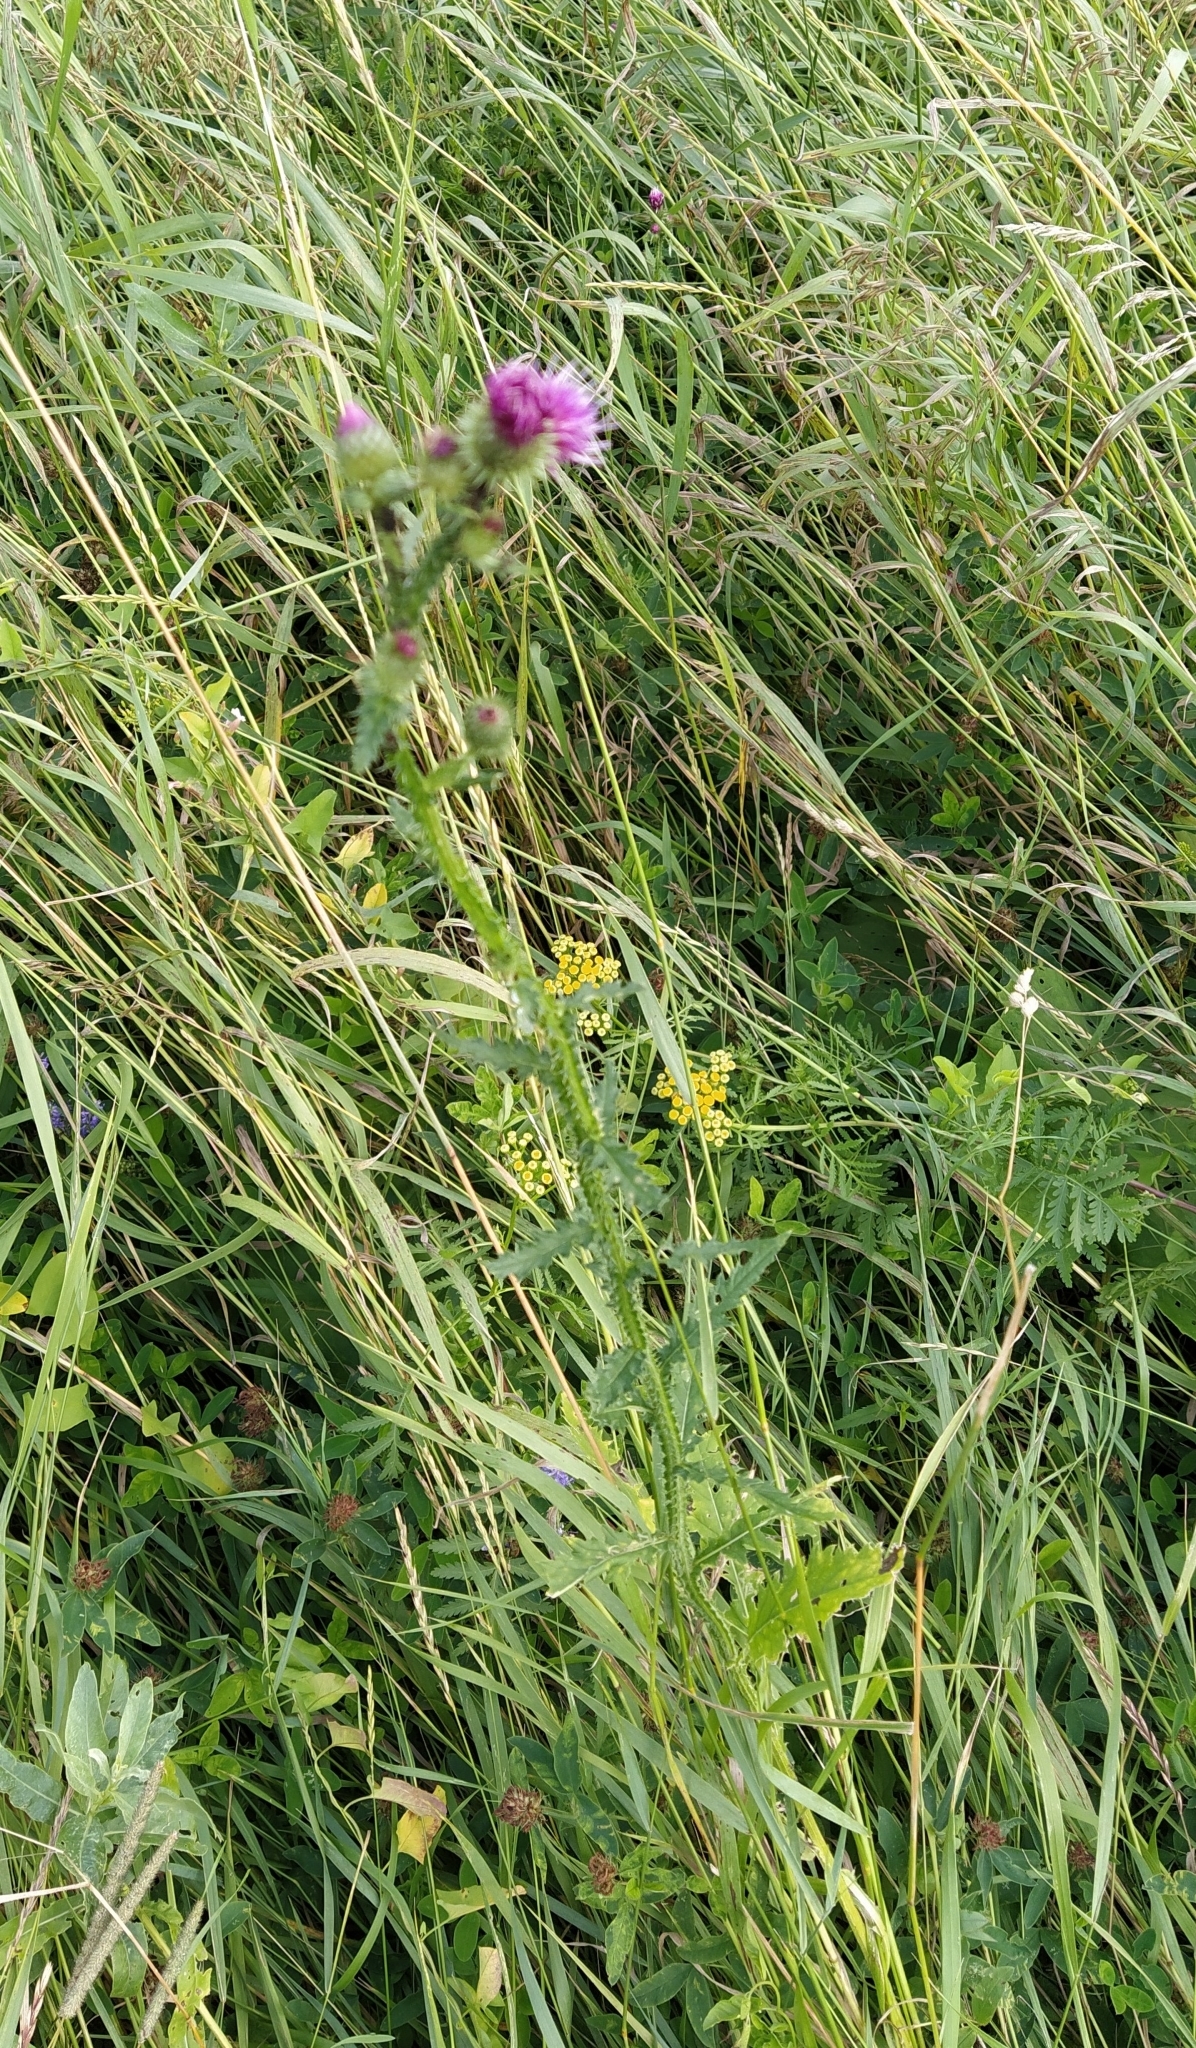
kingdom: Plantae
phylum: Tracheophyta
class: Magnoliopsida
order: Asterales
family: Asteraceae
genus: Carduus
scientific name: Carduus crispus
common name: Welted thistle
